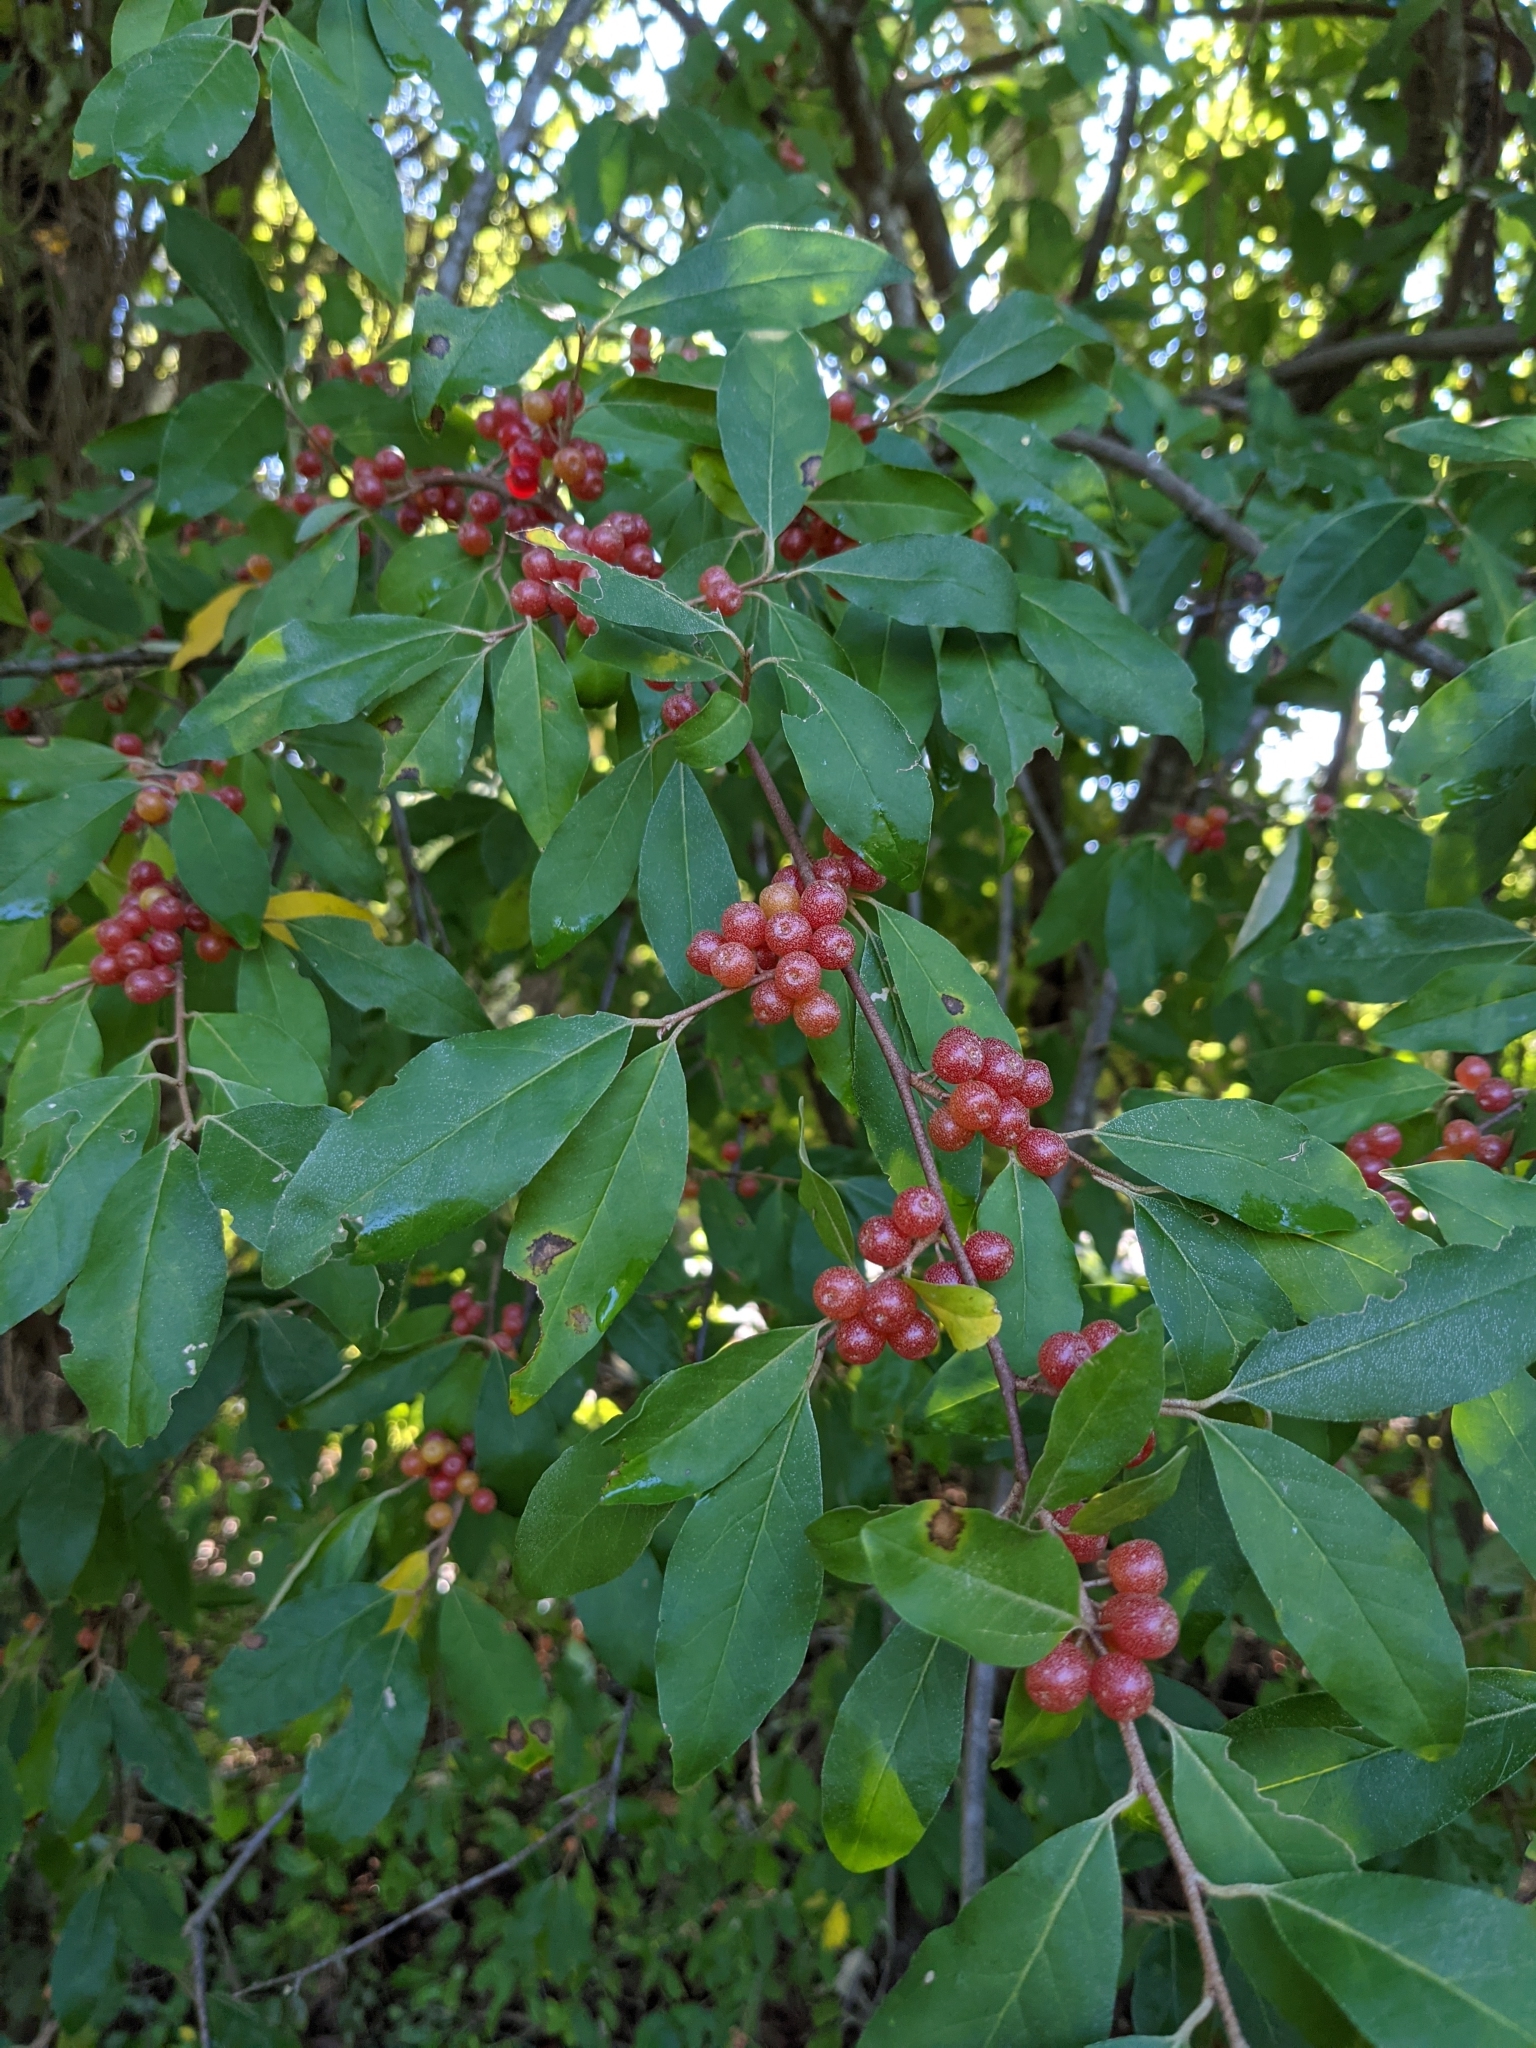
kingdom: Plantae
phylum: Tracheophyta
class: Magnoliopsida
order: Rosales
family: Elaeagnaceae
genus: Elaeagnus
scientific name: Elaeagnus umbellata
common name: Autumn olive
